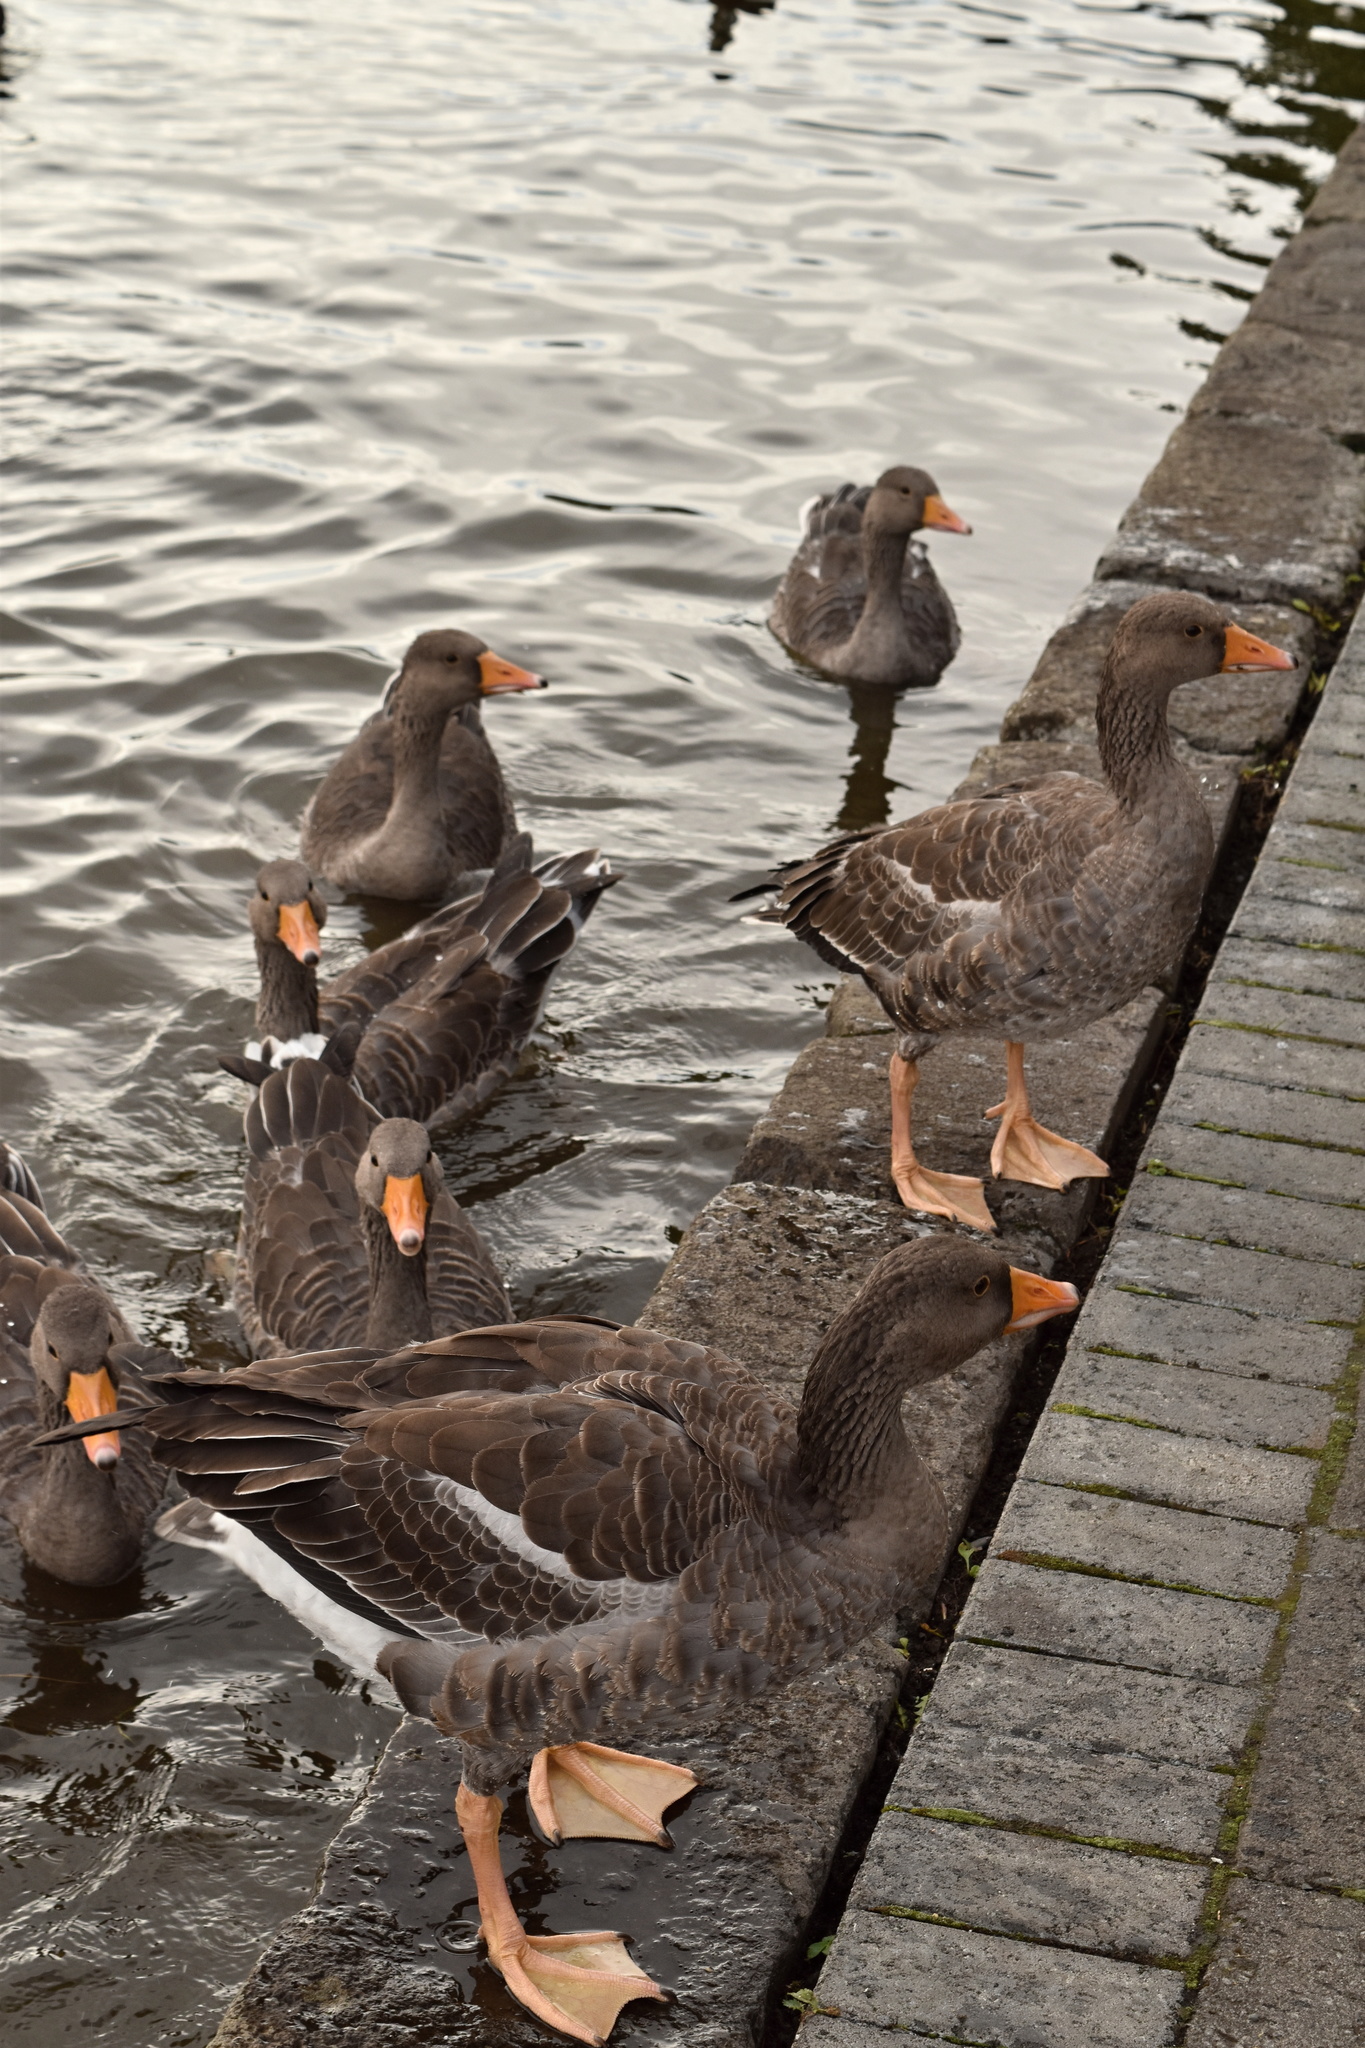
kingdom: Animalia
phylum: Chordata
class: Aves
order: Anseriformes
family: Anatidae
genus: Anser
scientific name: Anser anser
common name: Greylag goose
